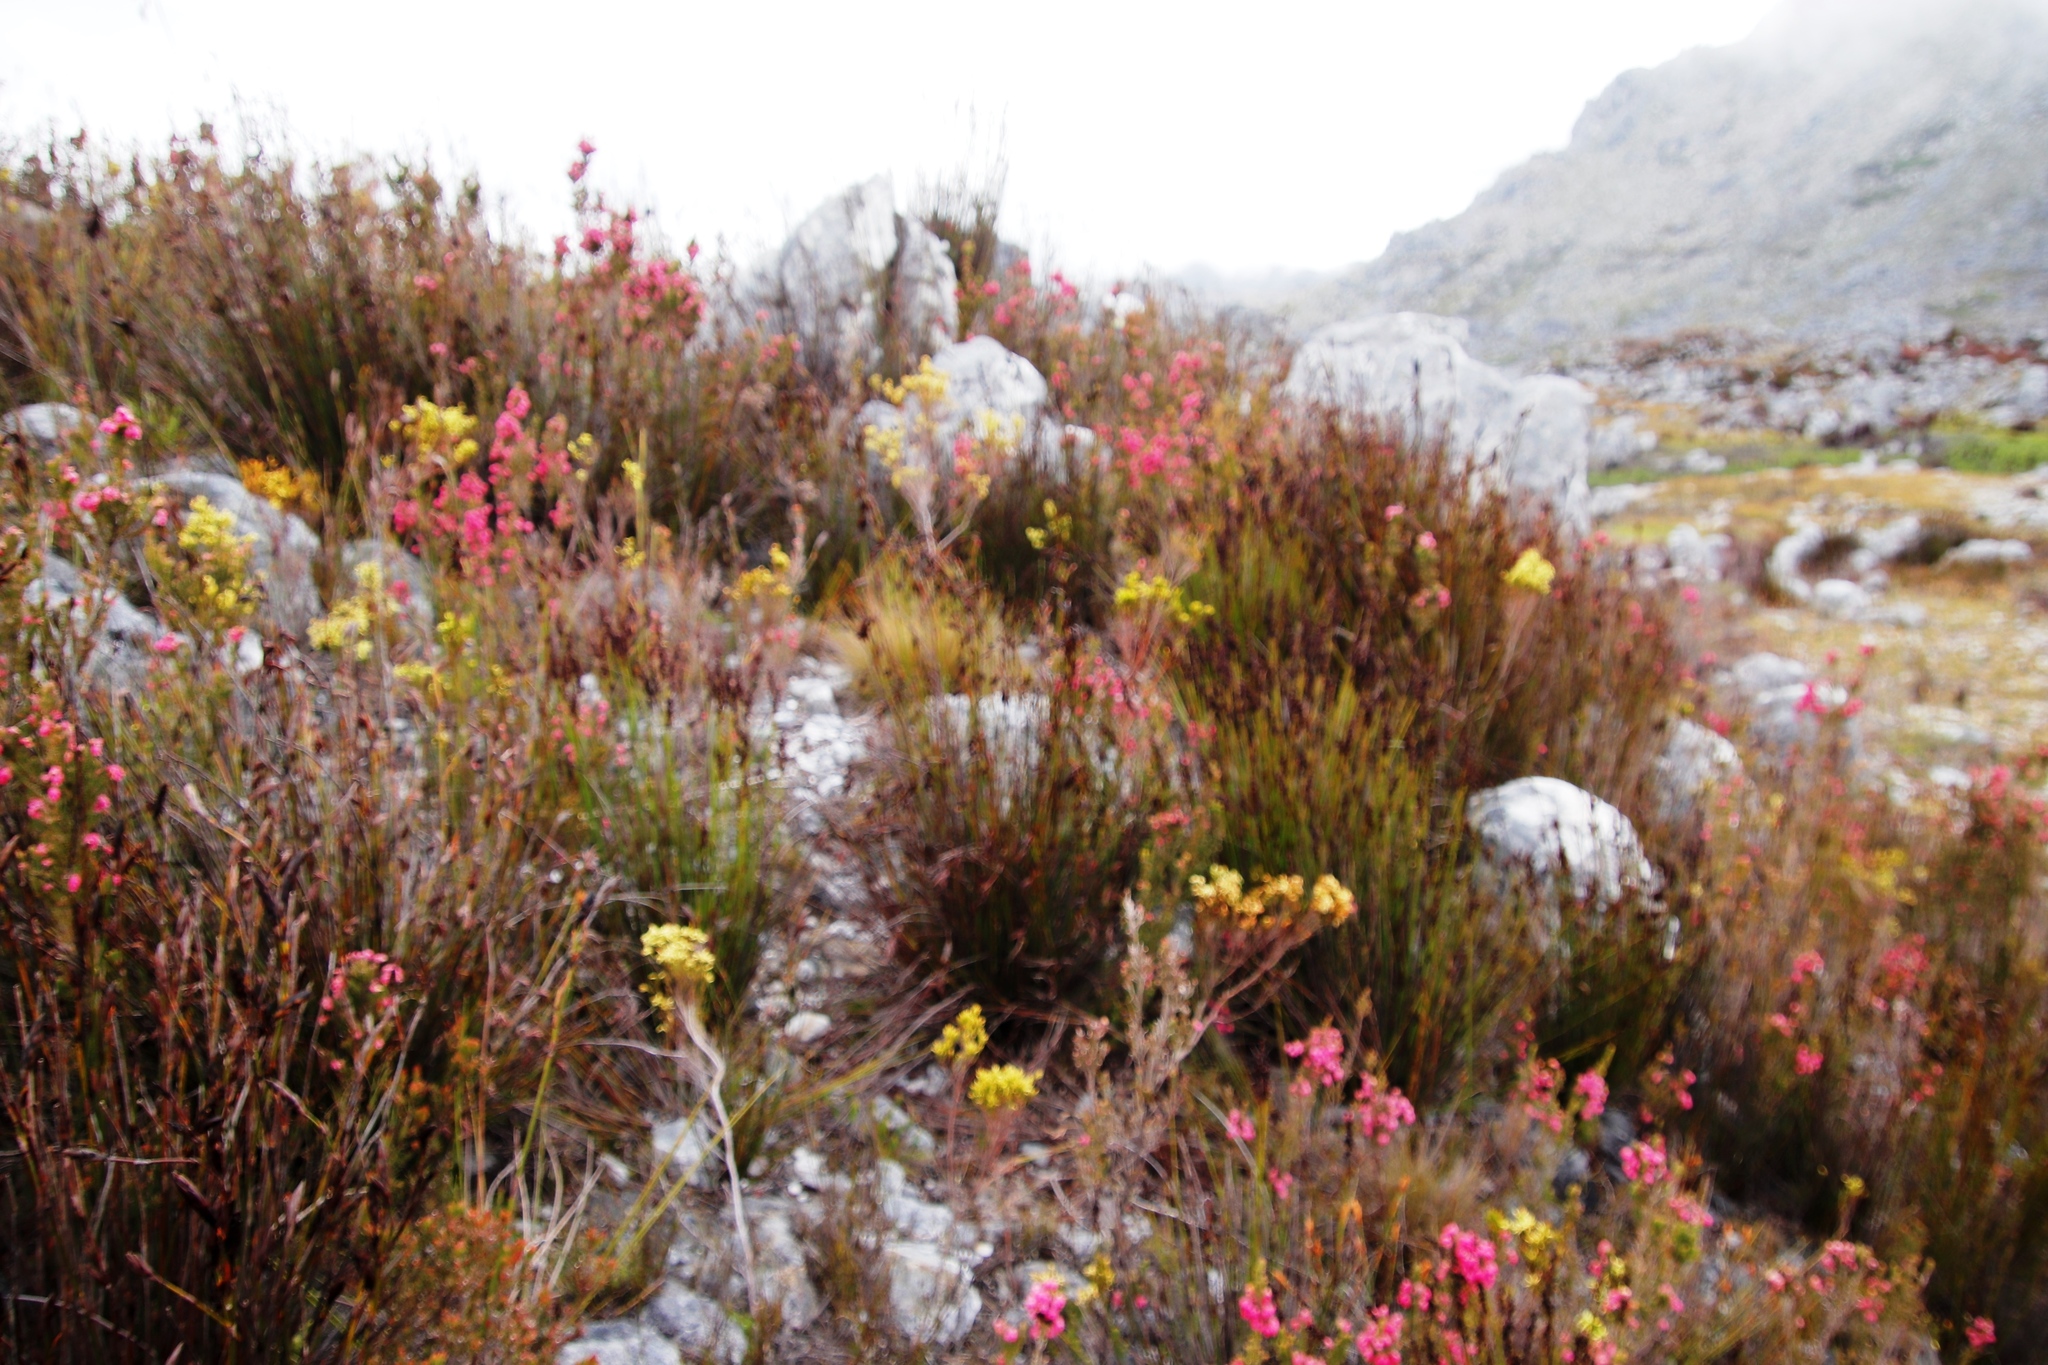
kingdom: Plantae
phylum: Tracheophyta
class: Magnoliopsida
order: Ericales
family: Ericaceae
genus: Erica
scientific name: Erica lutea
